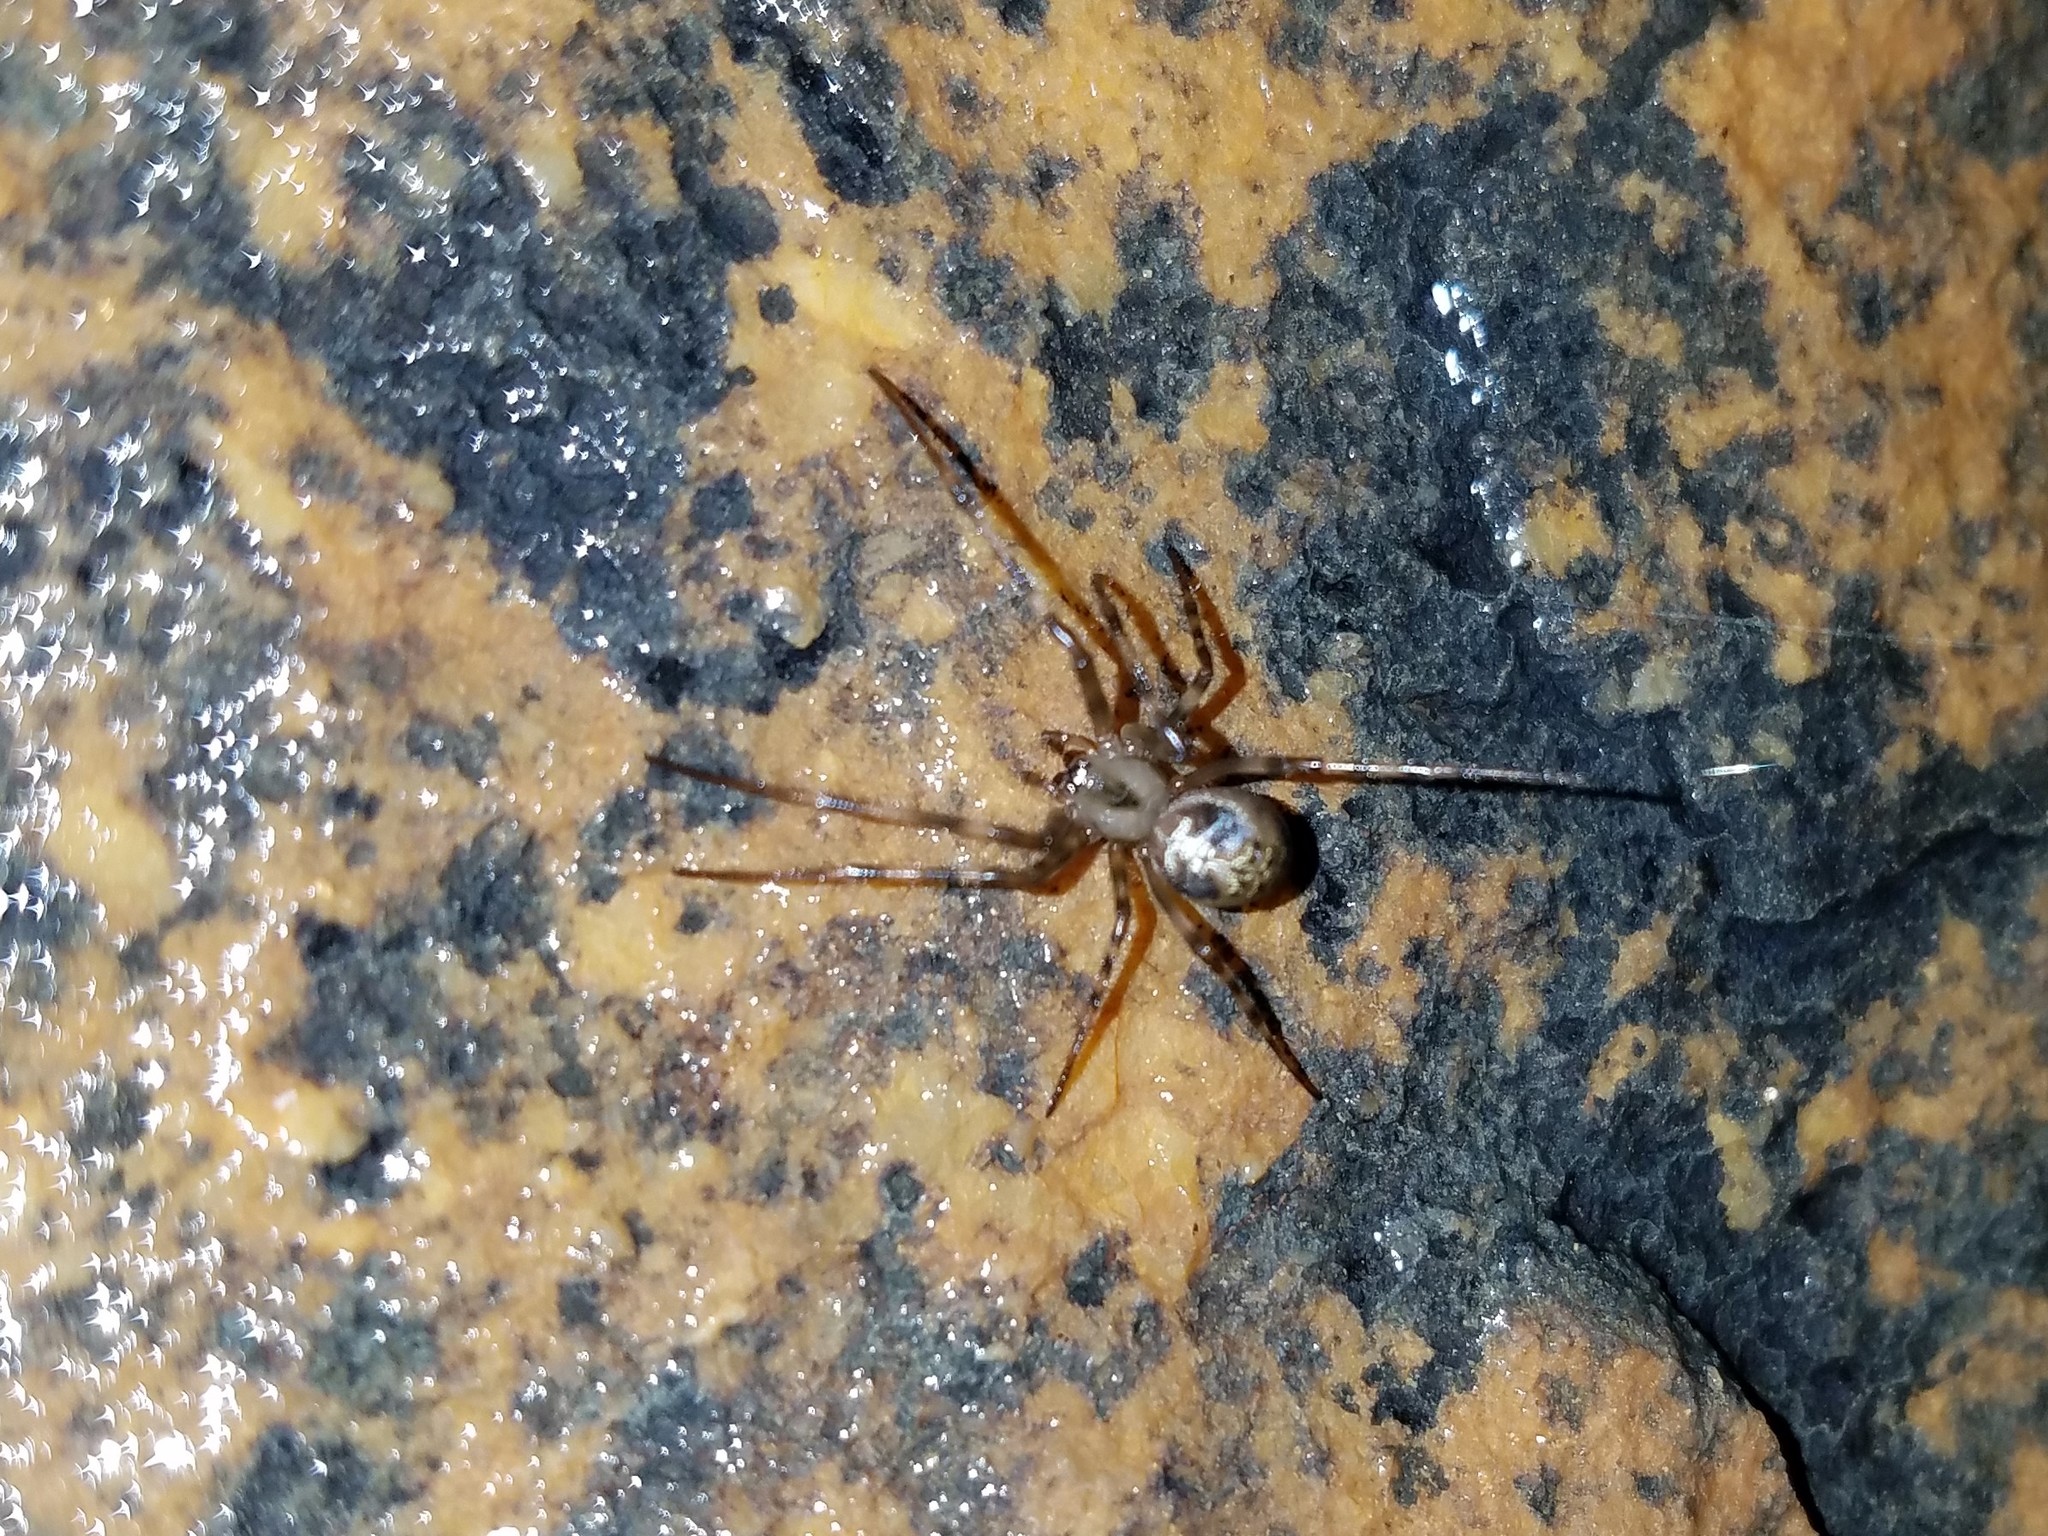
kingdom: Animalia
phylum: Arthropoda
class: Arachnida
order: Araneae
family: Tetragnathidae
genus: Meta
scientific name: Meta ovalis
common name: Eastern cave long-jawed spider
